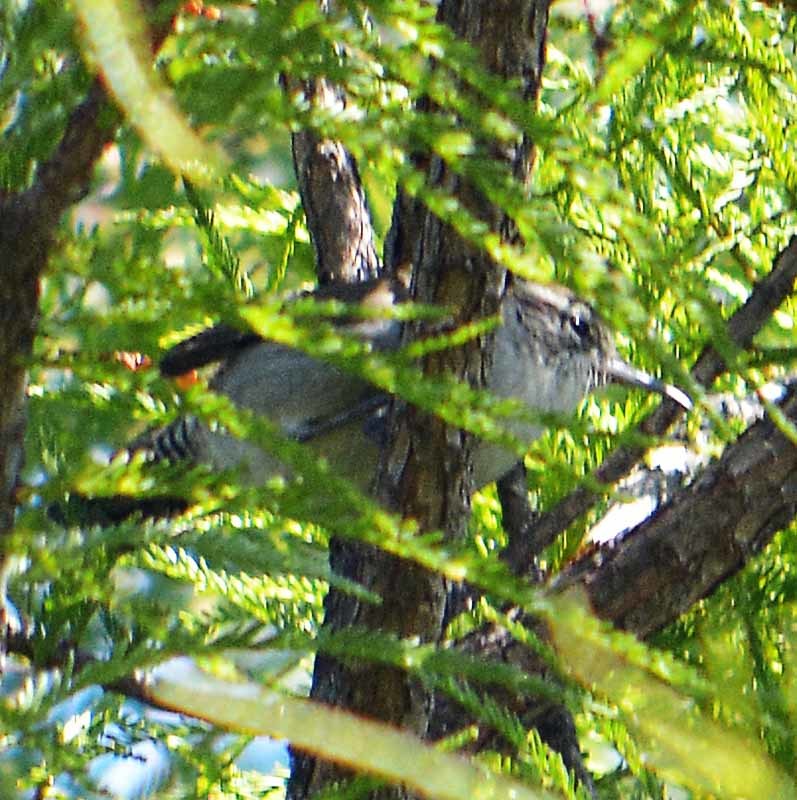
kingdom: Animalia
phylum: Chordata
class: Aves
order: Passeriformes
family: Troglodytidae
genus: Thryomanes
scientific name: Thryomanes bewickii
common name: Bewick's wren
